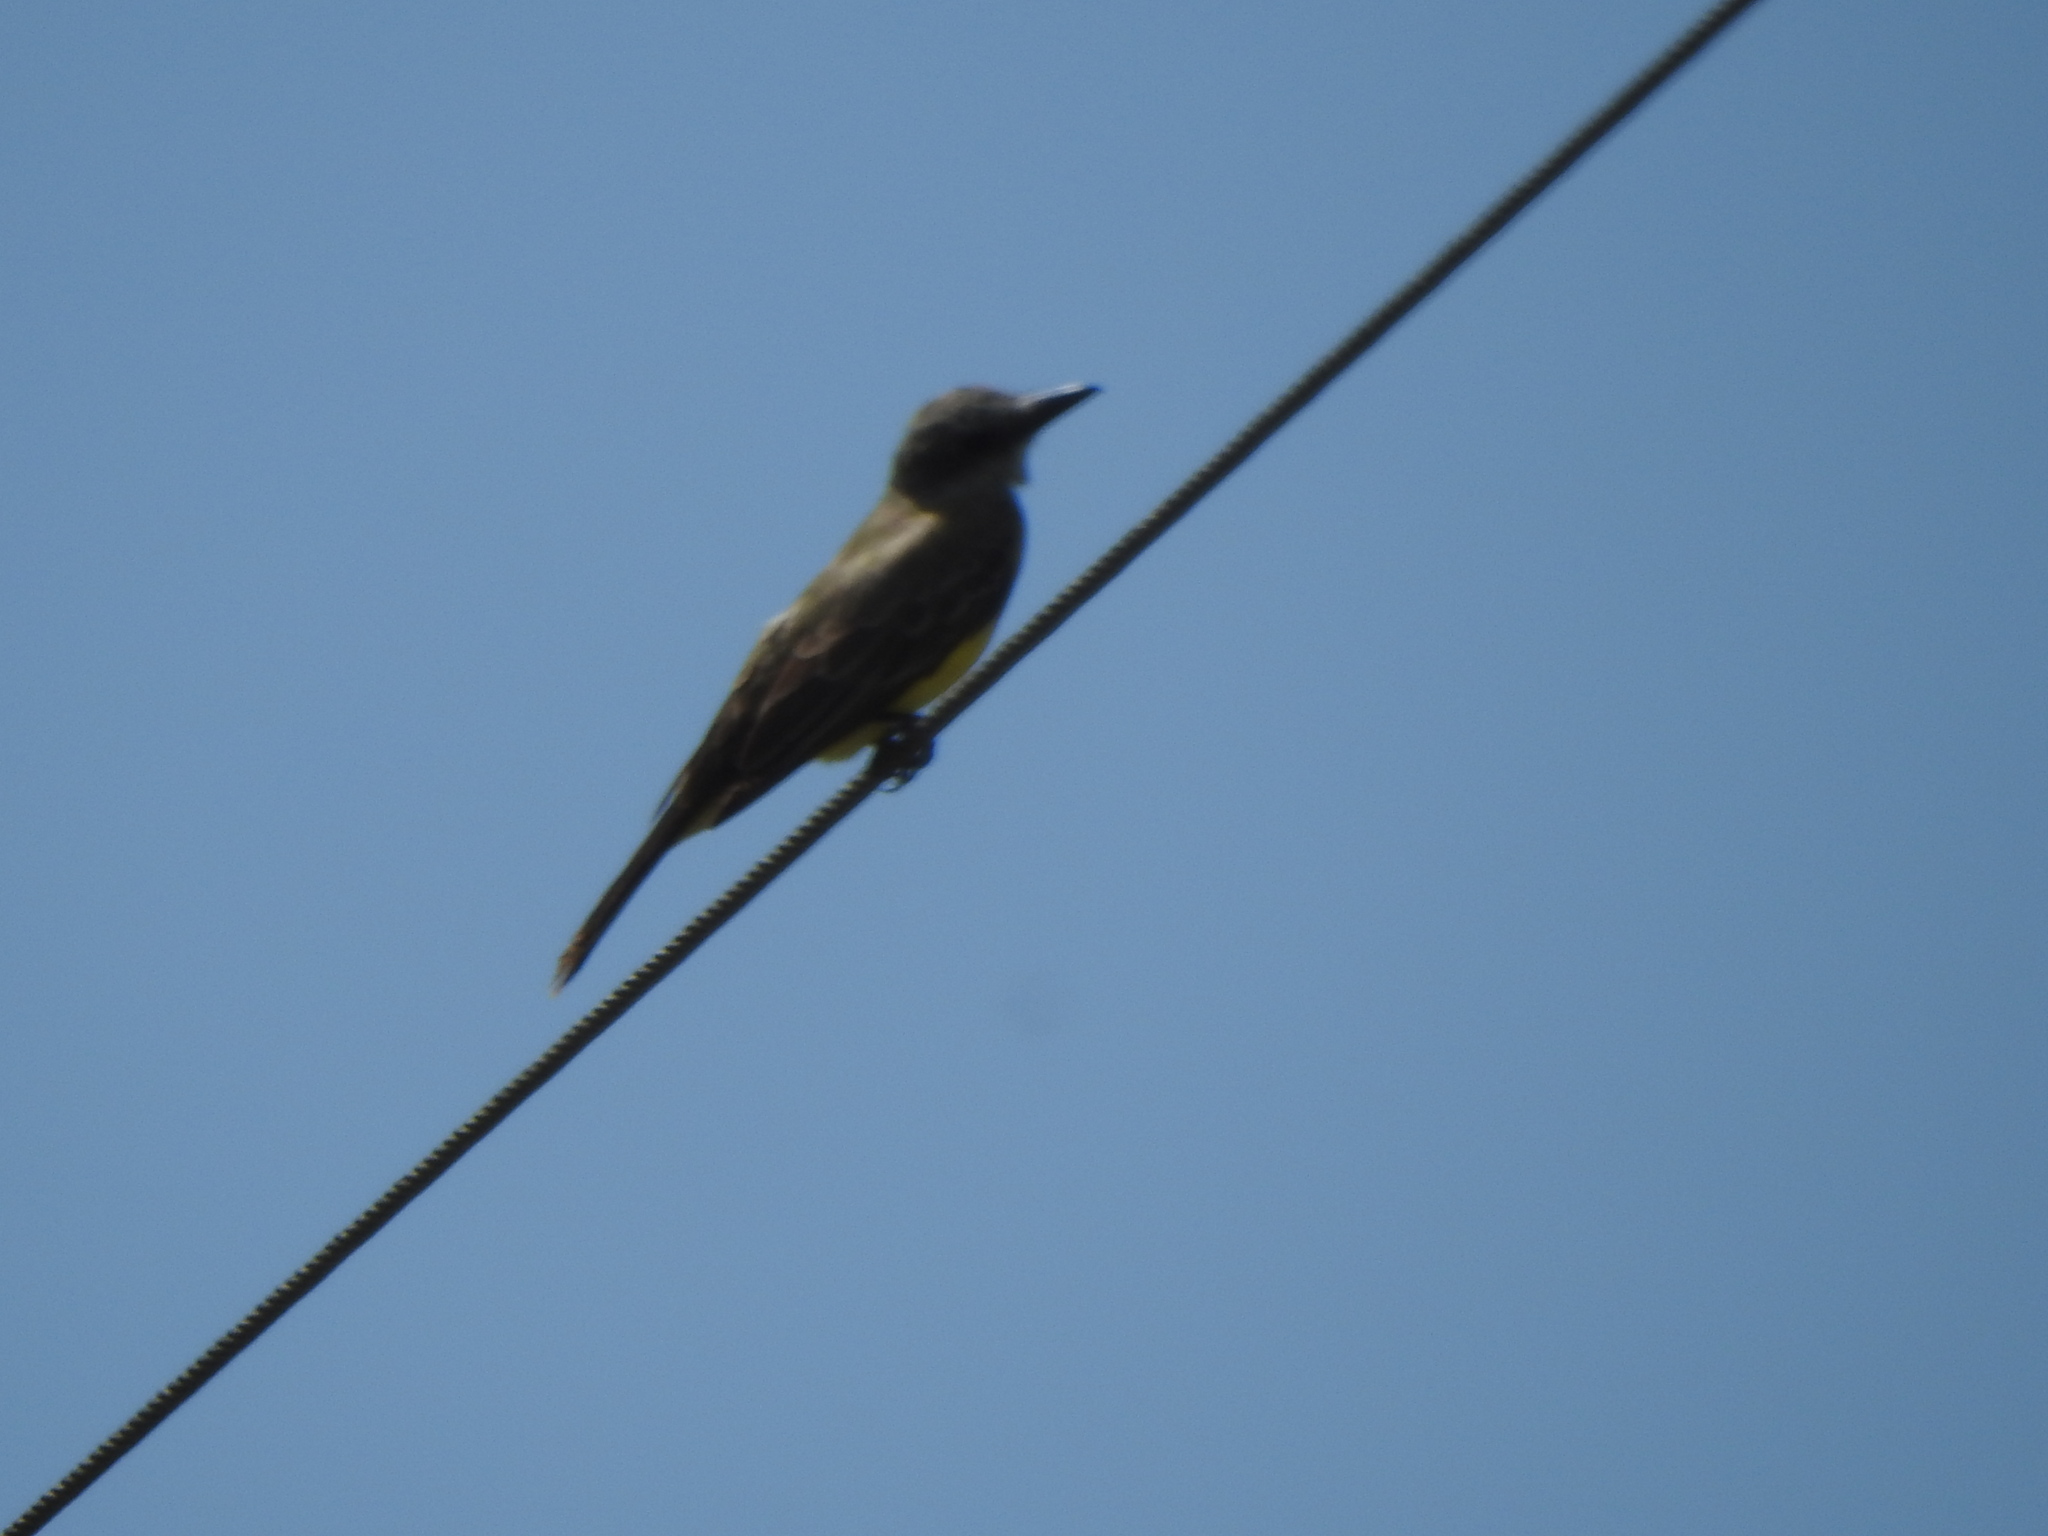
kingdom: Animalia
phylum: Chordata
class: Aves
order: Passeriformes
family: Tyrannidae
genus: Tyrannus
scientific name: Tyrannus melancholicus
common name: Tropical kingbird
